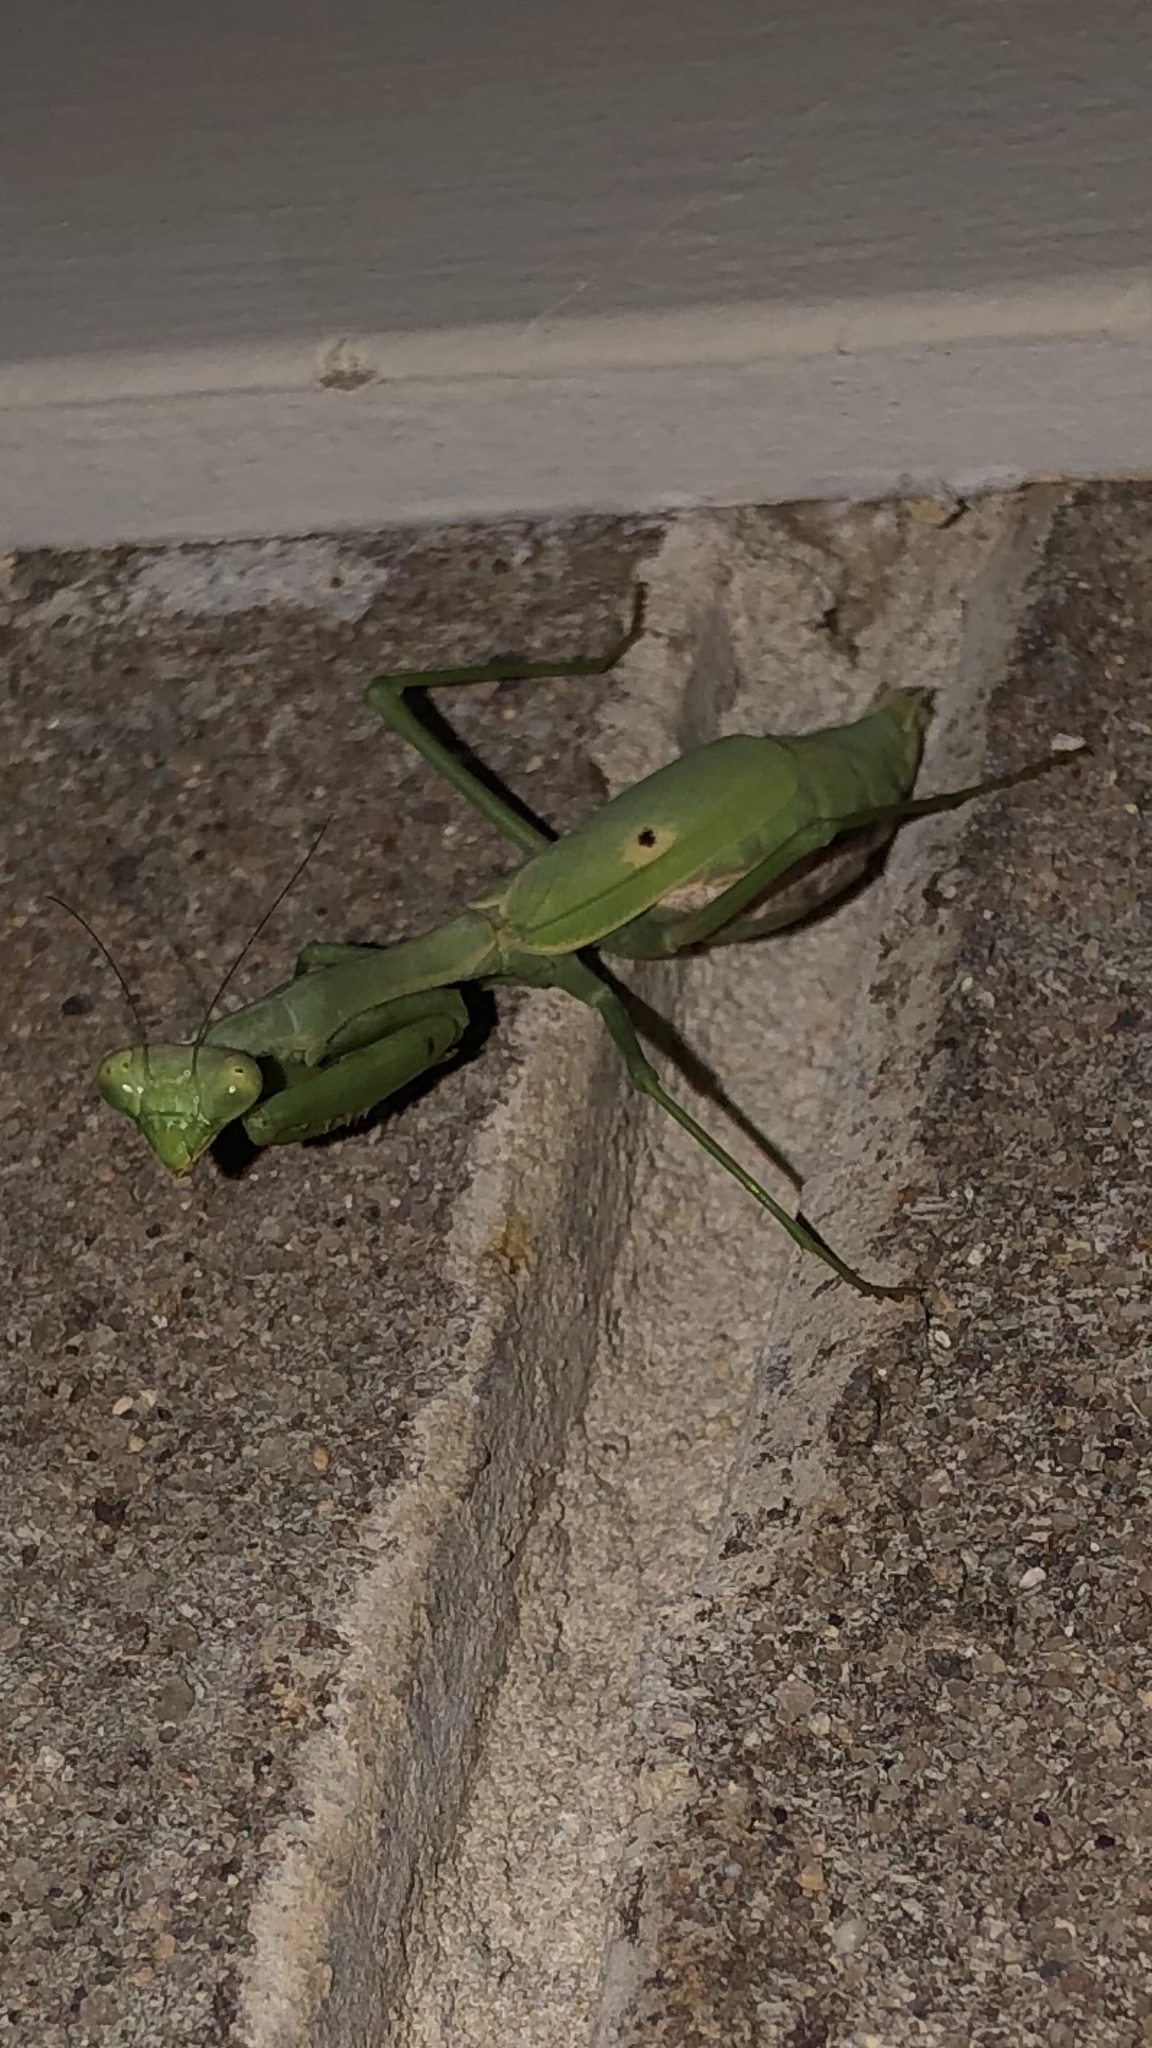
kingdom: Animalia
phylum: Arthropoda
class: Insecta
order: Mantodea
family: Mantidae
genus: Stagmomantis
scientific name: Stagmomantis carolina
